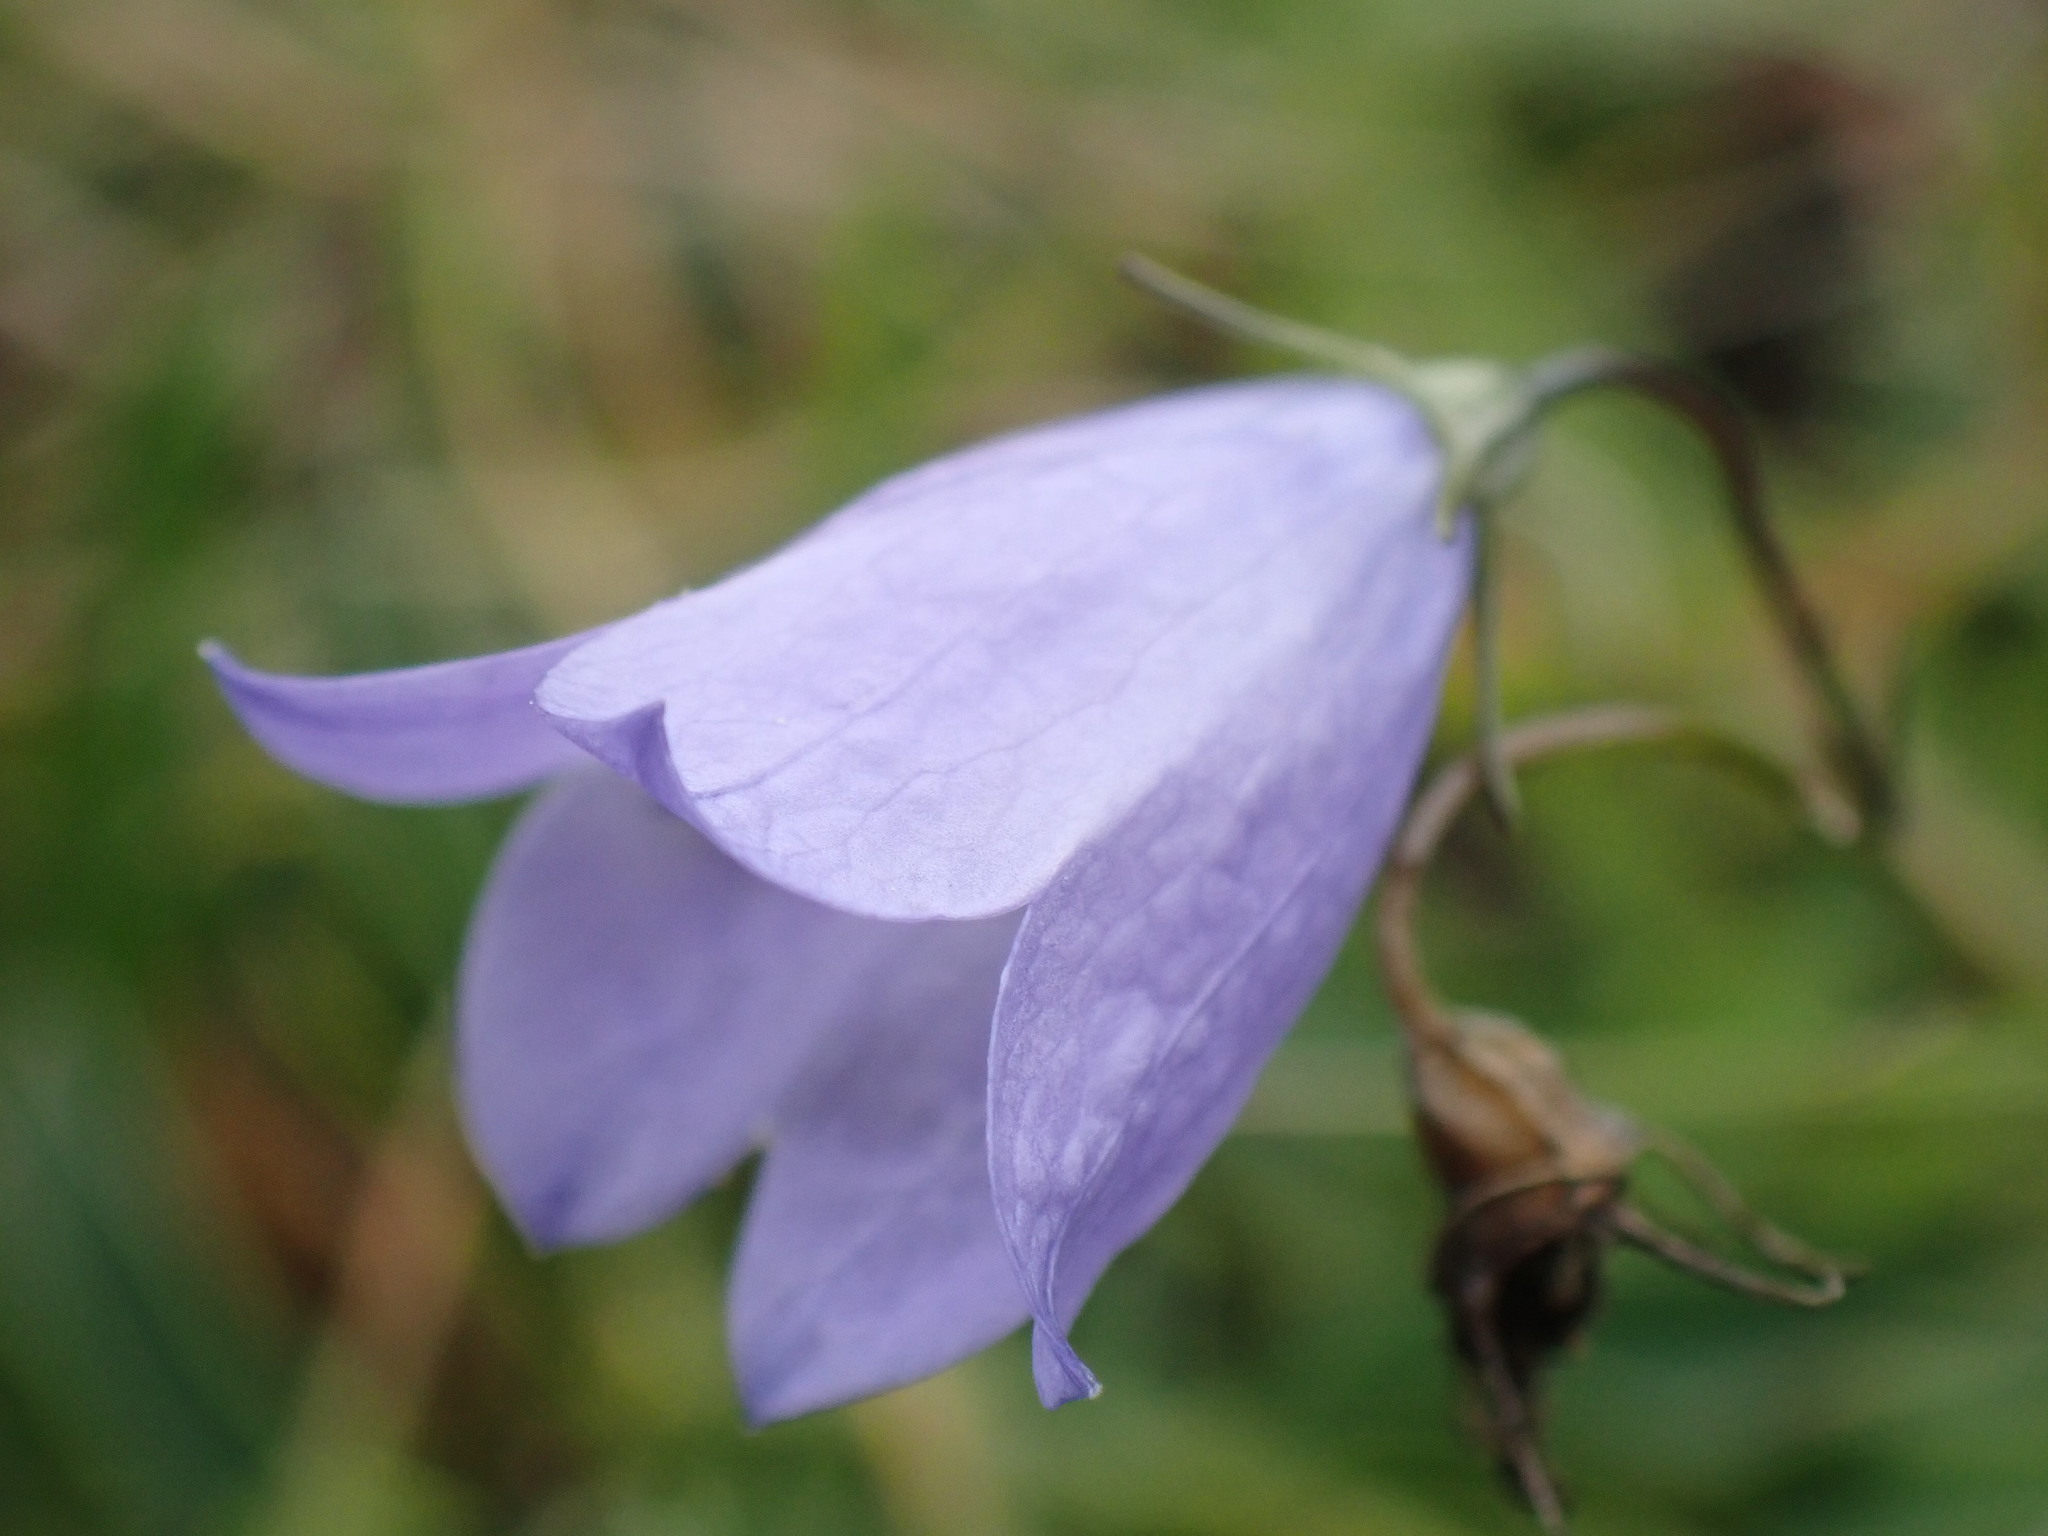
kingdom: Plantae
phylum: Tracheophyta
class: Magnoliopsida
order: Asterales
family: Campanulaceae
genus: Campanula
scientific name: Campanula rotundifolia
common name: Harebell
